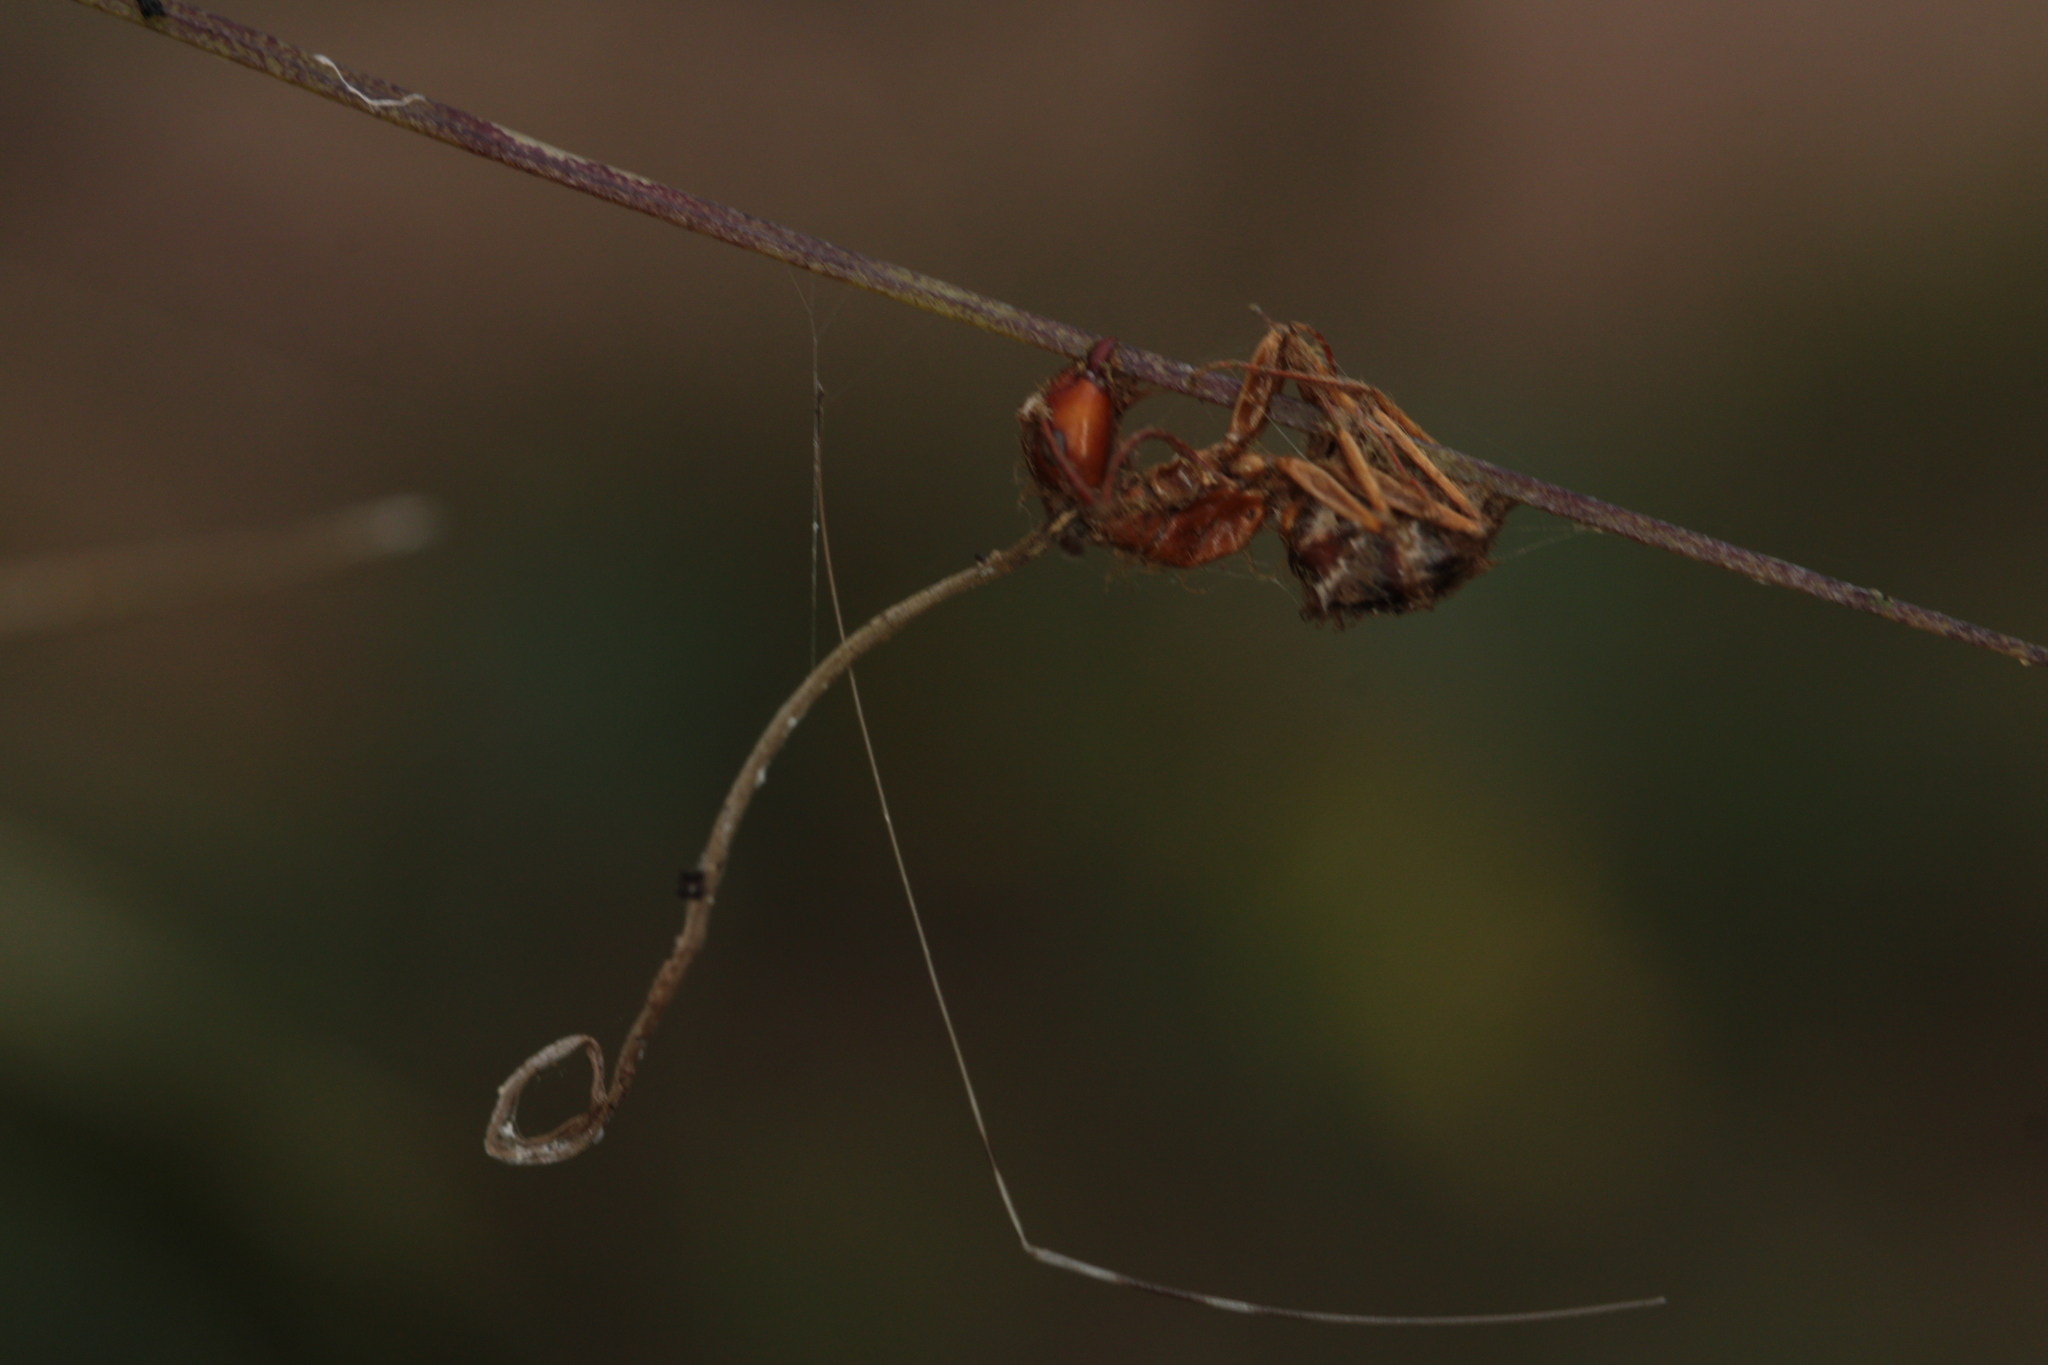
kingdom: Fungi
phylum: Ascomycota
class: Sordariomycetes
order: Hypocreales
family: Ophiocordycipitaceae
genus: Ophiocordyceps
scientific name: Ophiocordyceps camponoti-floridani
